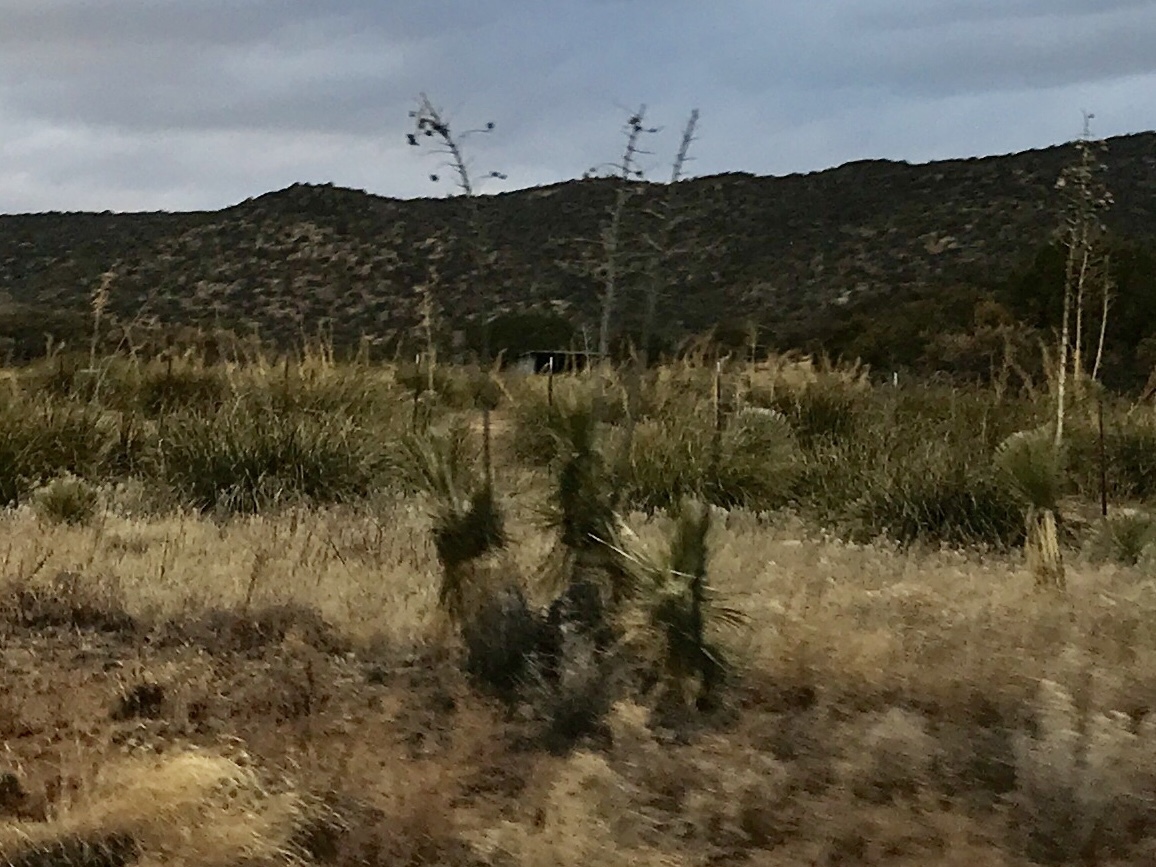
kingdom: Plantae
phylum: Tracheophyta
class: Liliopsida
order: Asparagales
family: Asparagaceae
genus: Yucca
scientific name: Yucca elata
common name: Palmella
